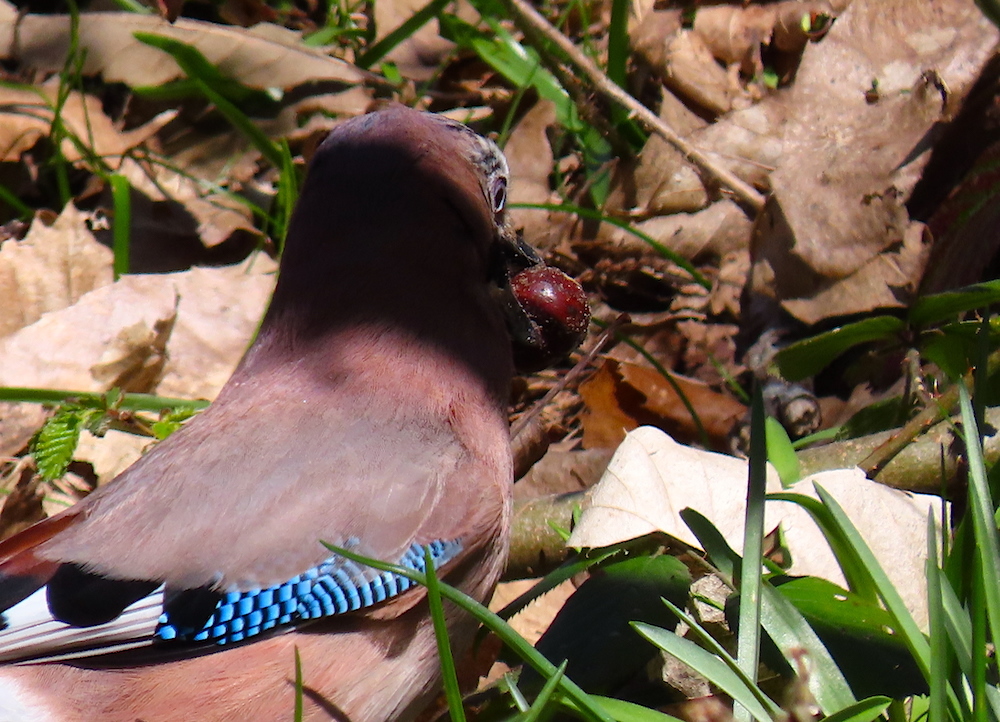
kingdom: Animalia
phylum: Chordata
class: Aves
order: Passeriformes
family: Corvidae
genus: Garrulus
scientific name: Garrulus glandarius
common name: Eurasian jay
